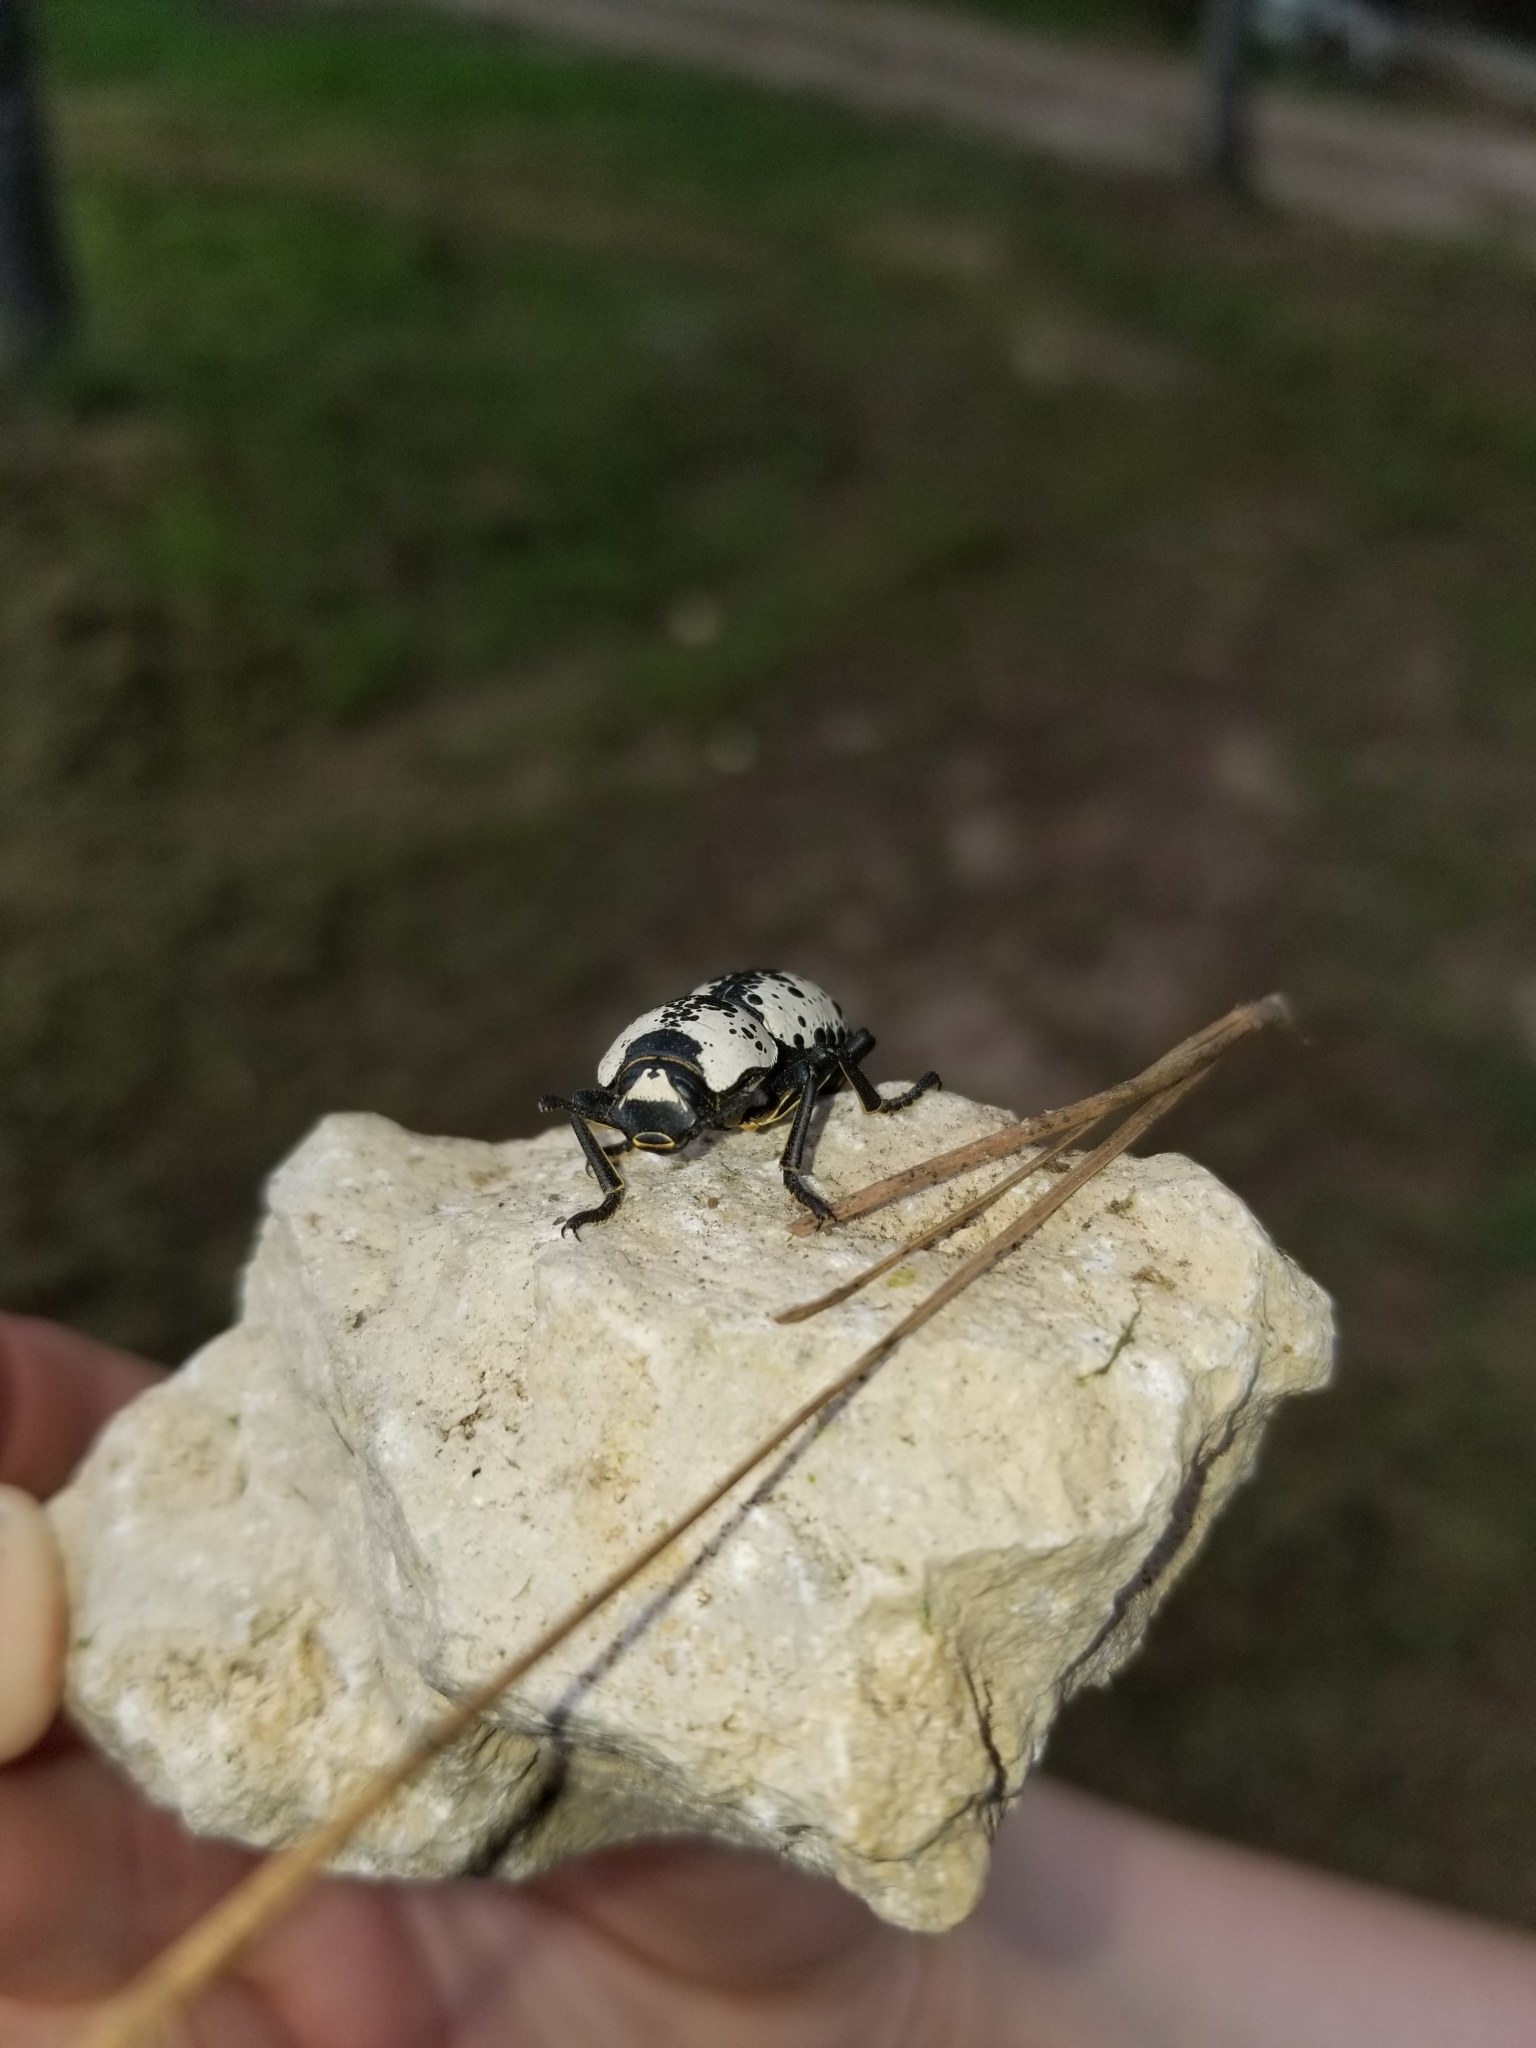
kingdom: Animalia
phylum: Arthropoda
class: Insecta
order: Coleoptera
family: Zopheridae
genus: Zopherus
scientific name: Zopherus nodulosus
